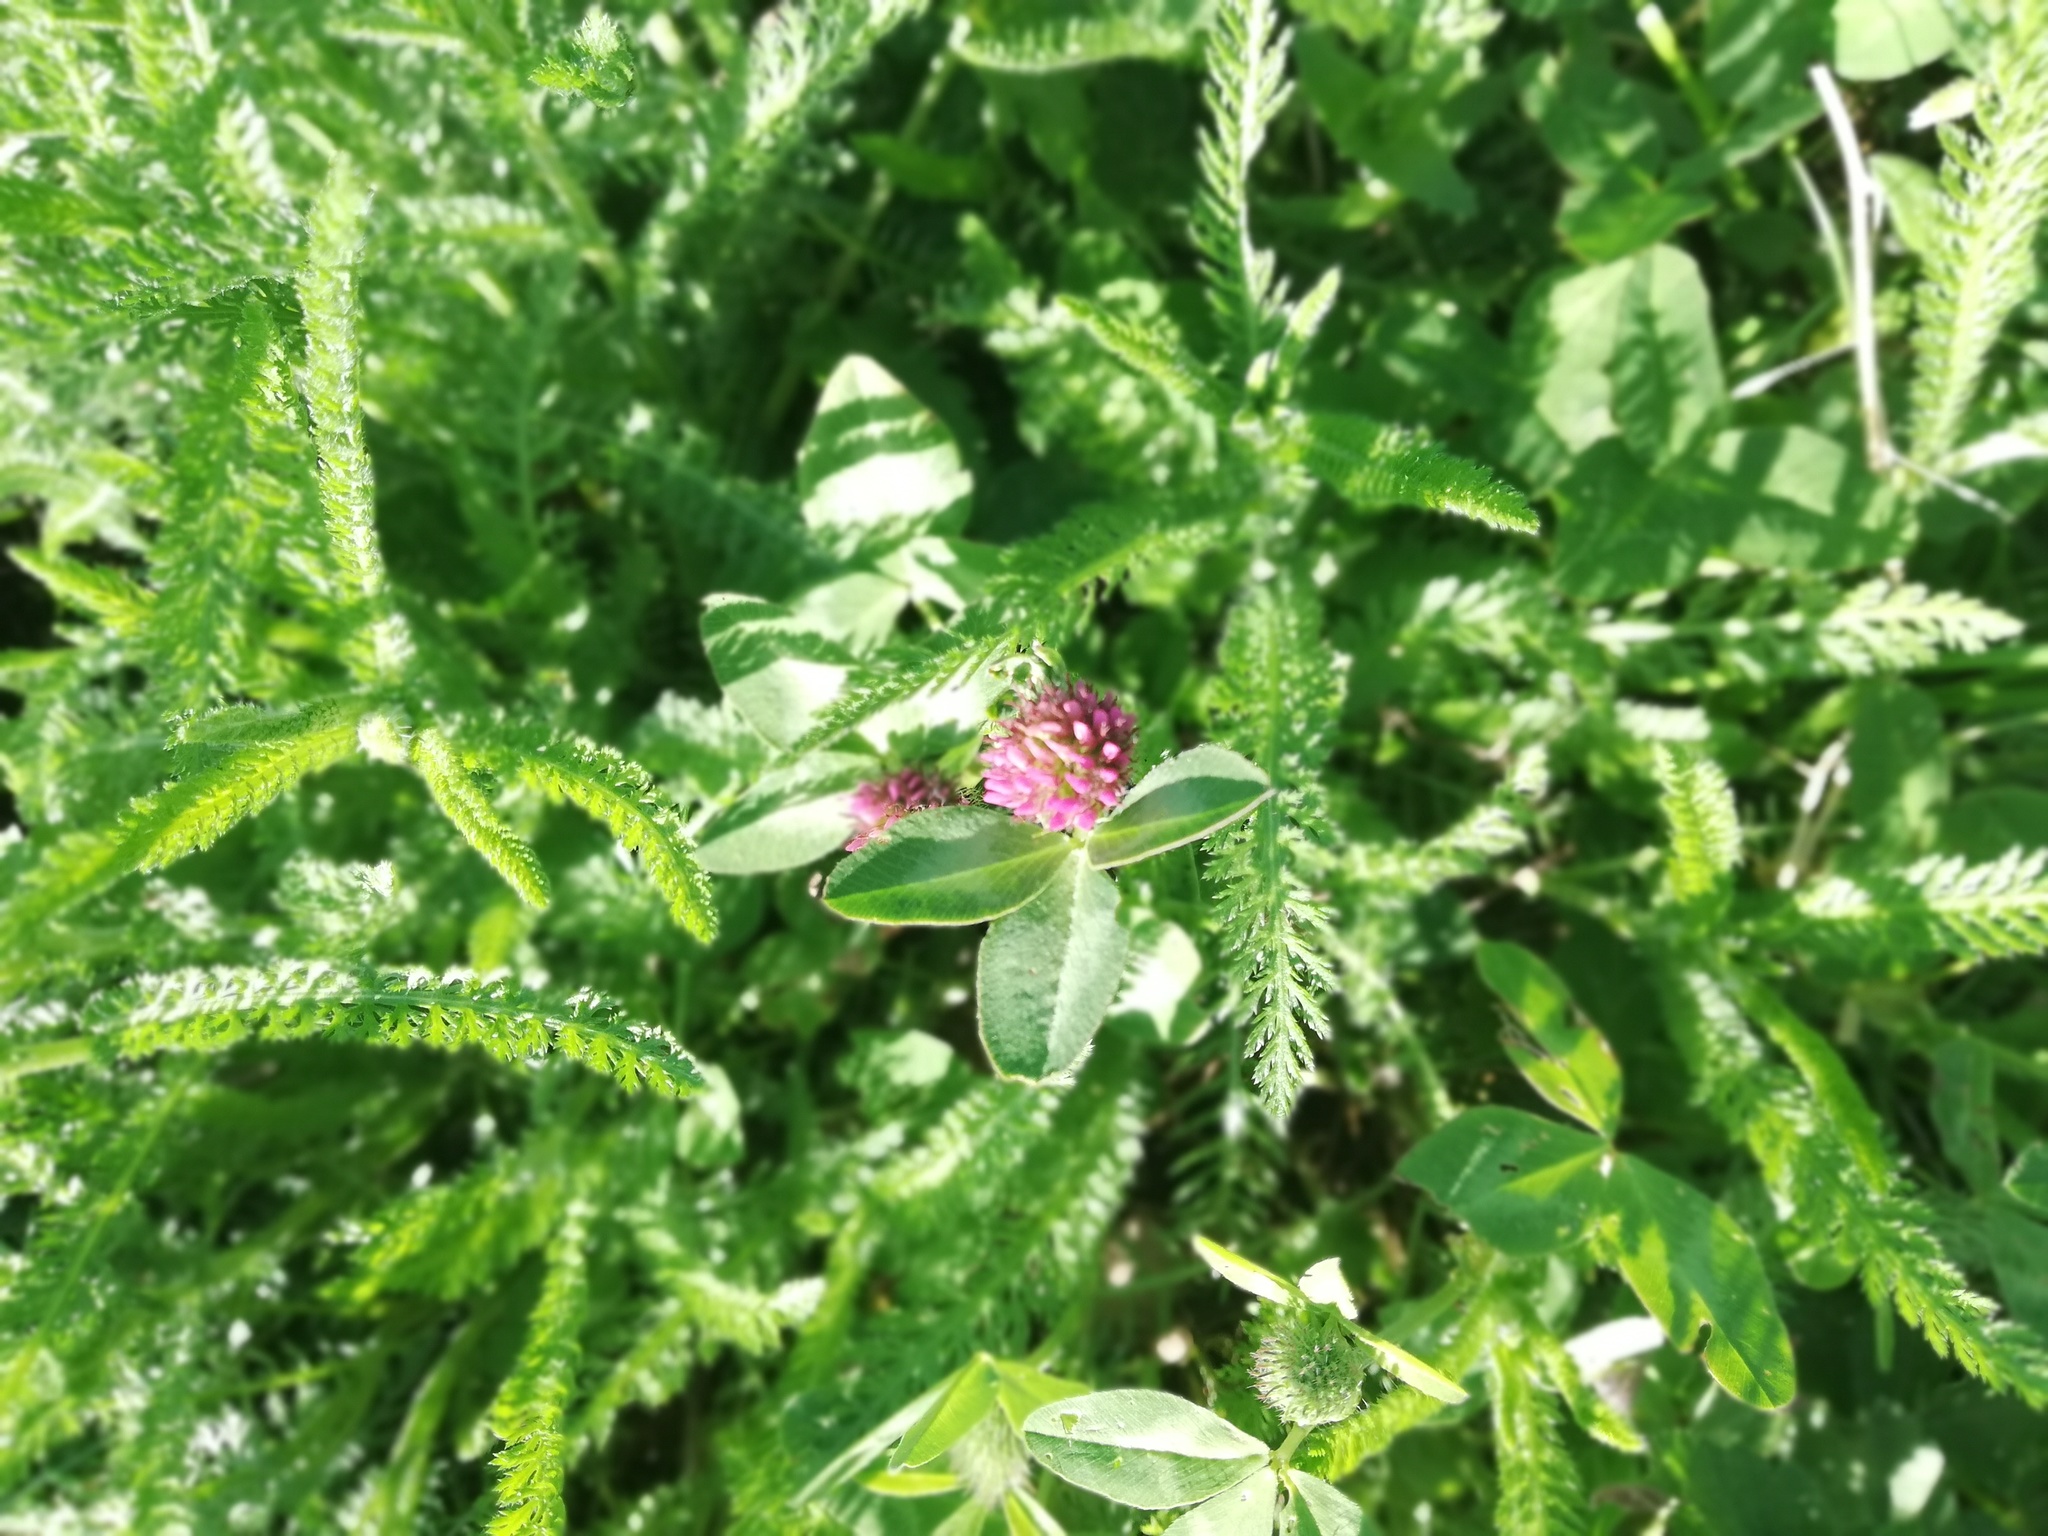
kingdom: Plantae
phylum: Tracheophyta
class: Magnoliopsida
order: Fabales
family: Fabaceae
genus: Trifolium
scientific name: Trifolium pratense
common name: Red clover
